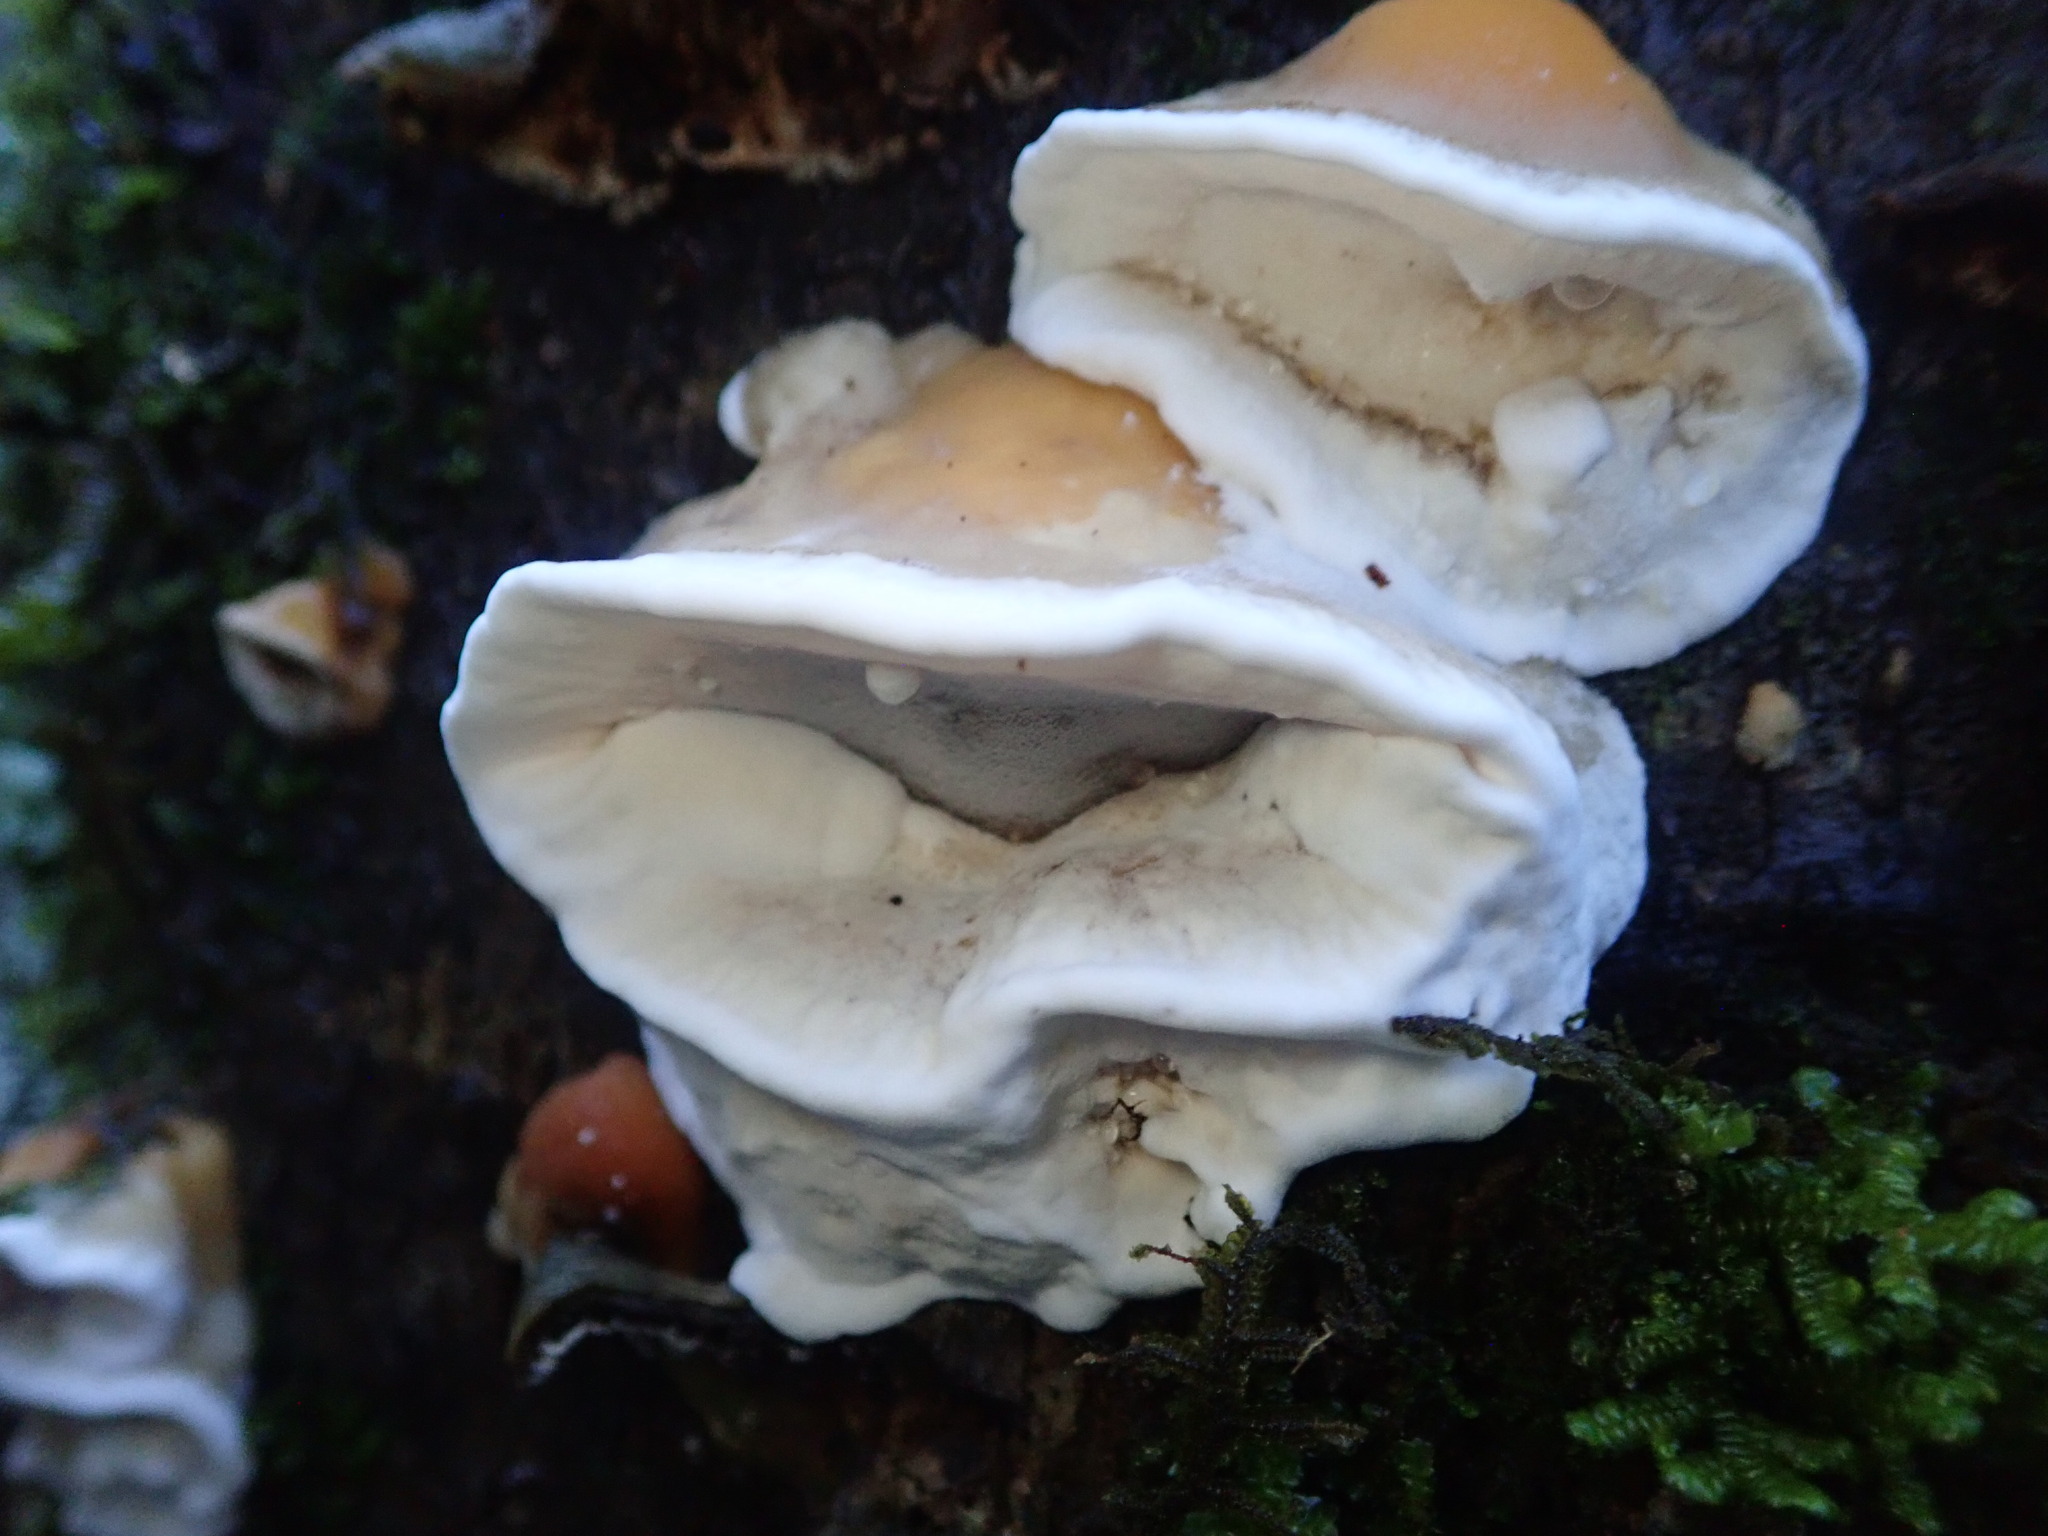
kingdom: Fungi
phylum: Basidiomycota
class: Agaricomycetes
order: Polyporales
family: Phanerochaetaceae
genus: Bjerkandera
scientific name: Bjerkandera adusta
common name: Smoky bracket
